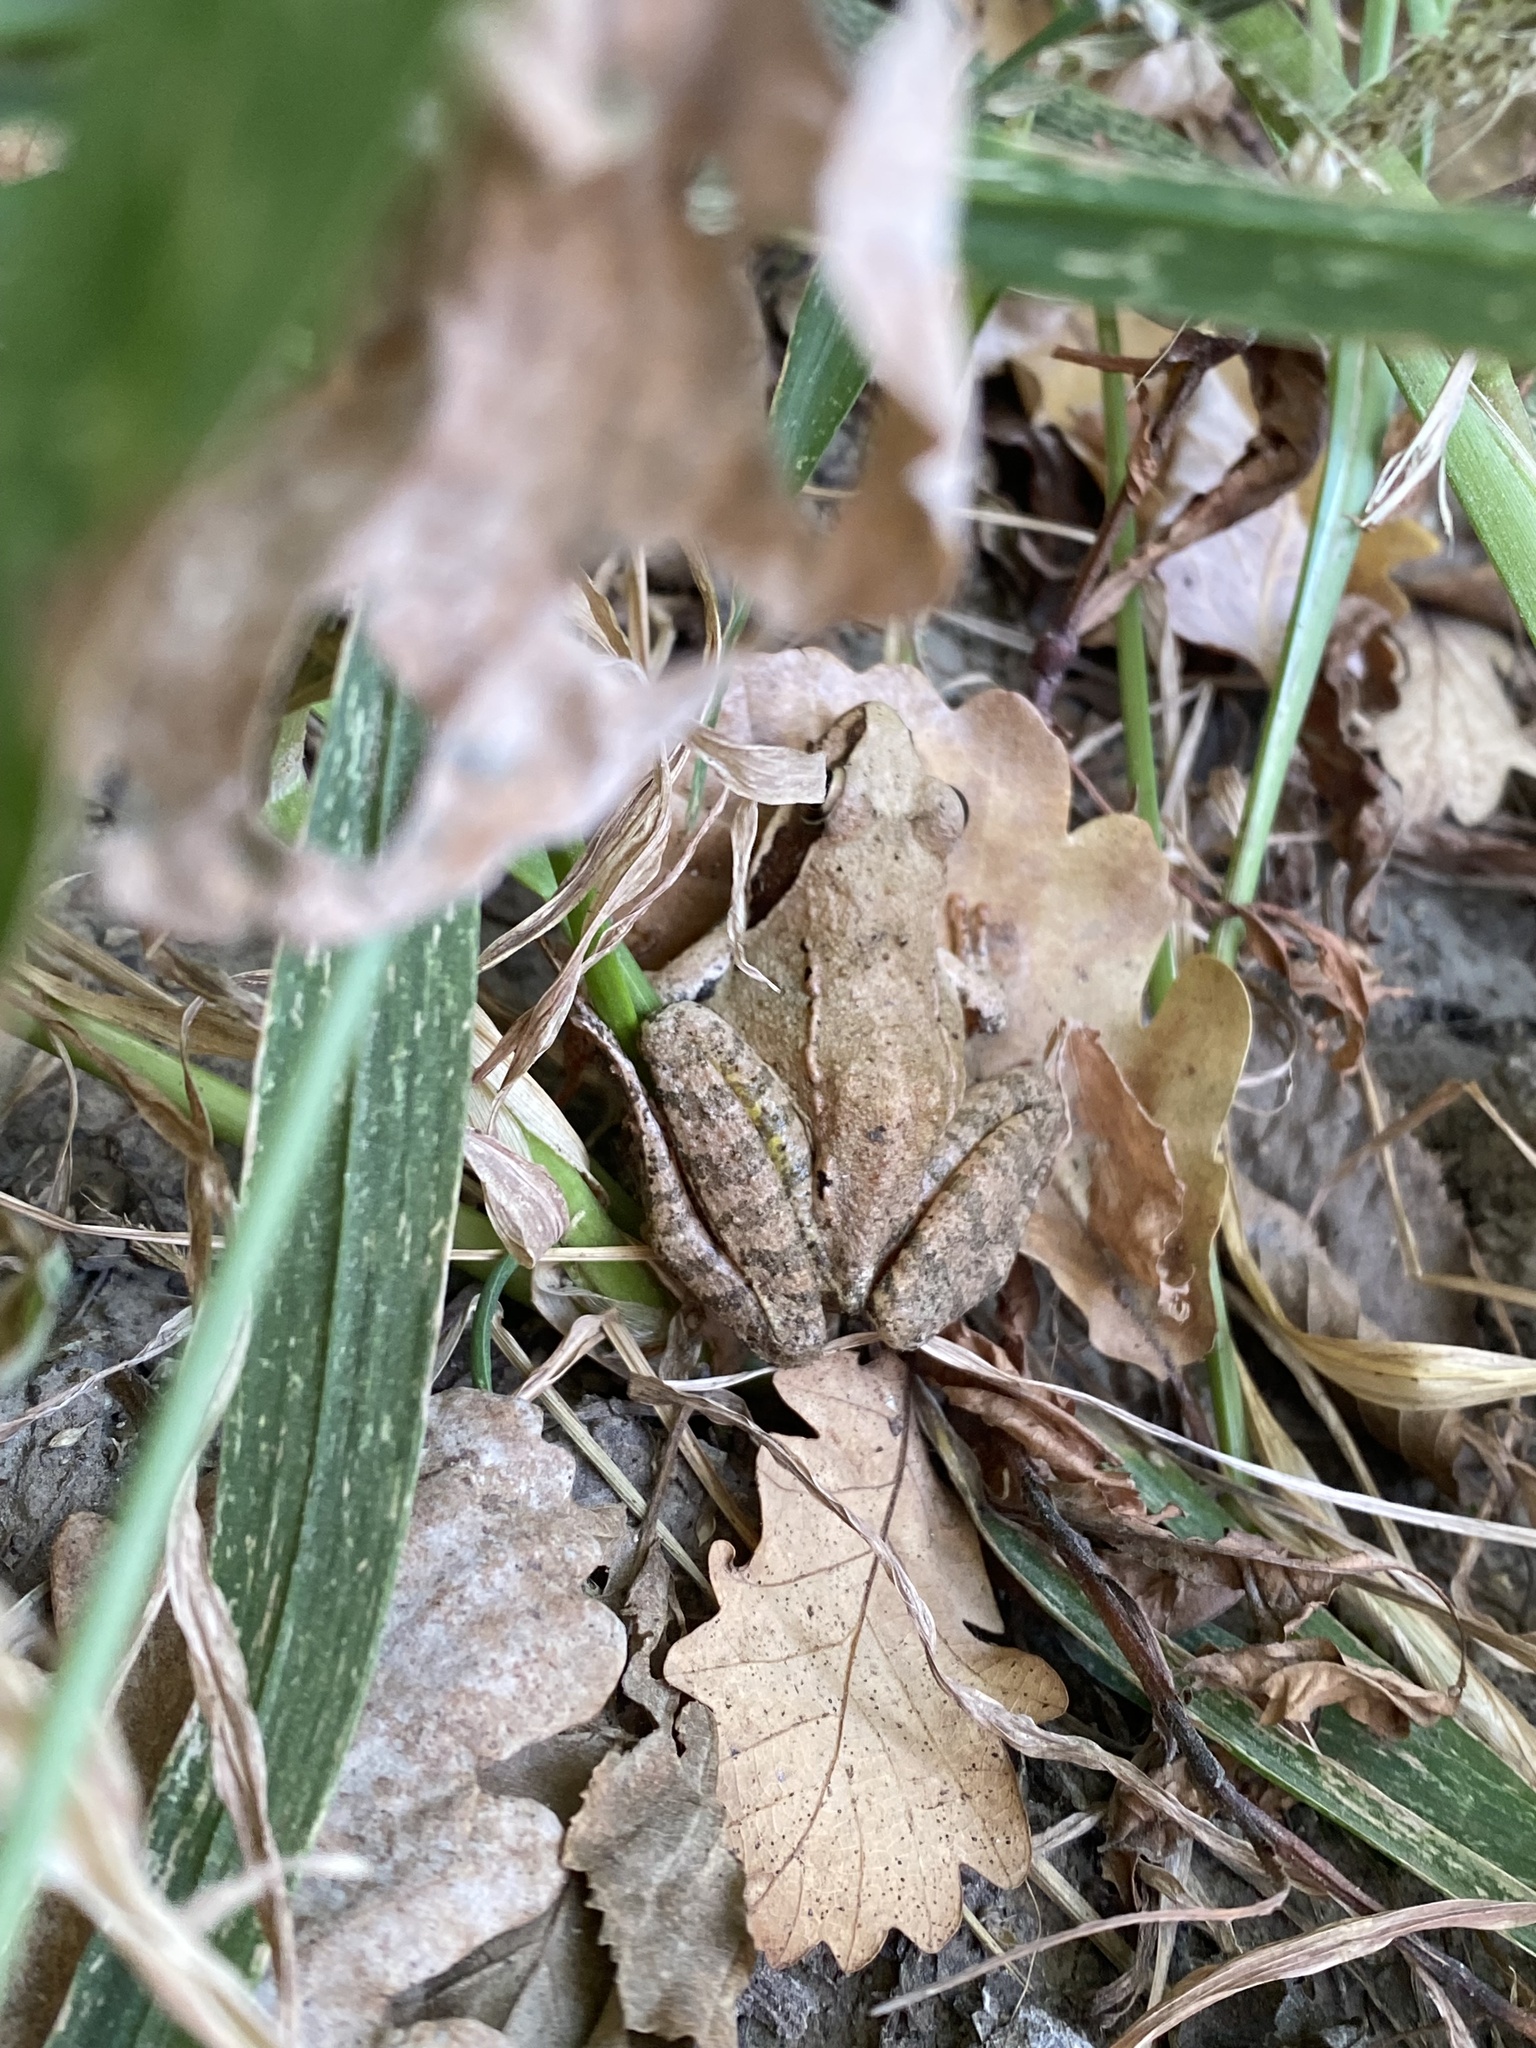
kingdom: Animalia
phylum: Chordata
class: Amphibia
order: Anura
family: Ranidae
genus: Rana
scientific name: Rana macrocnemis
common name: Banded frog
